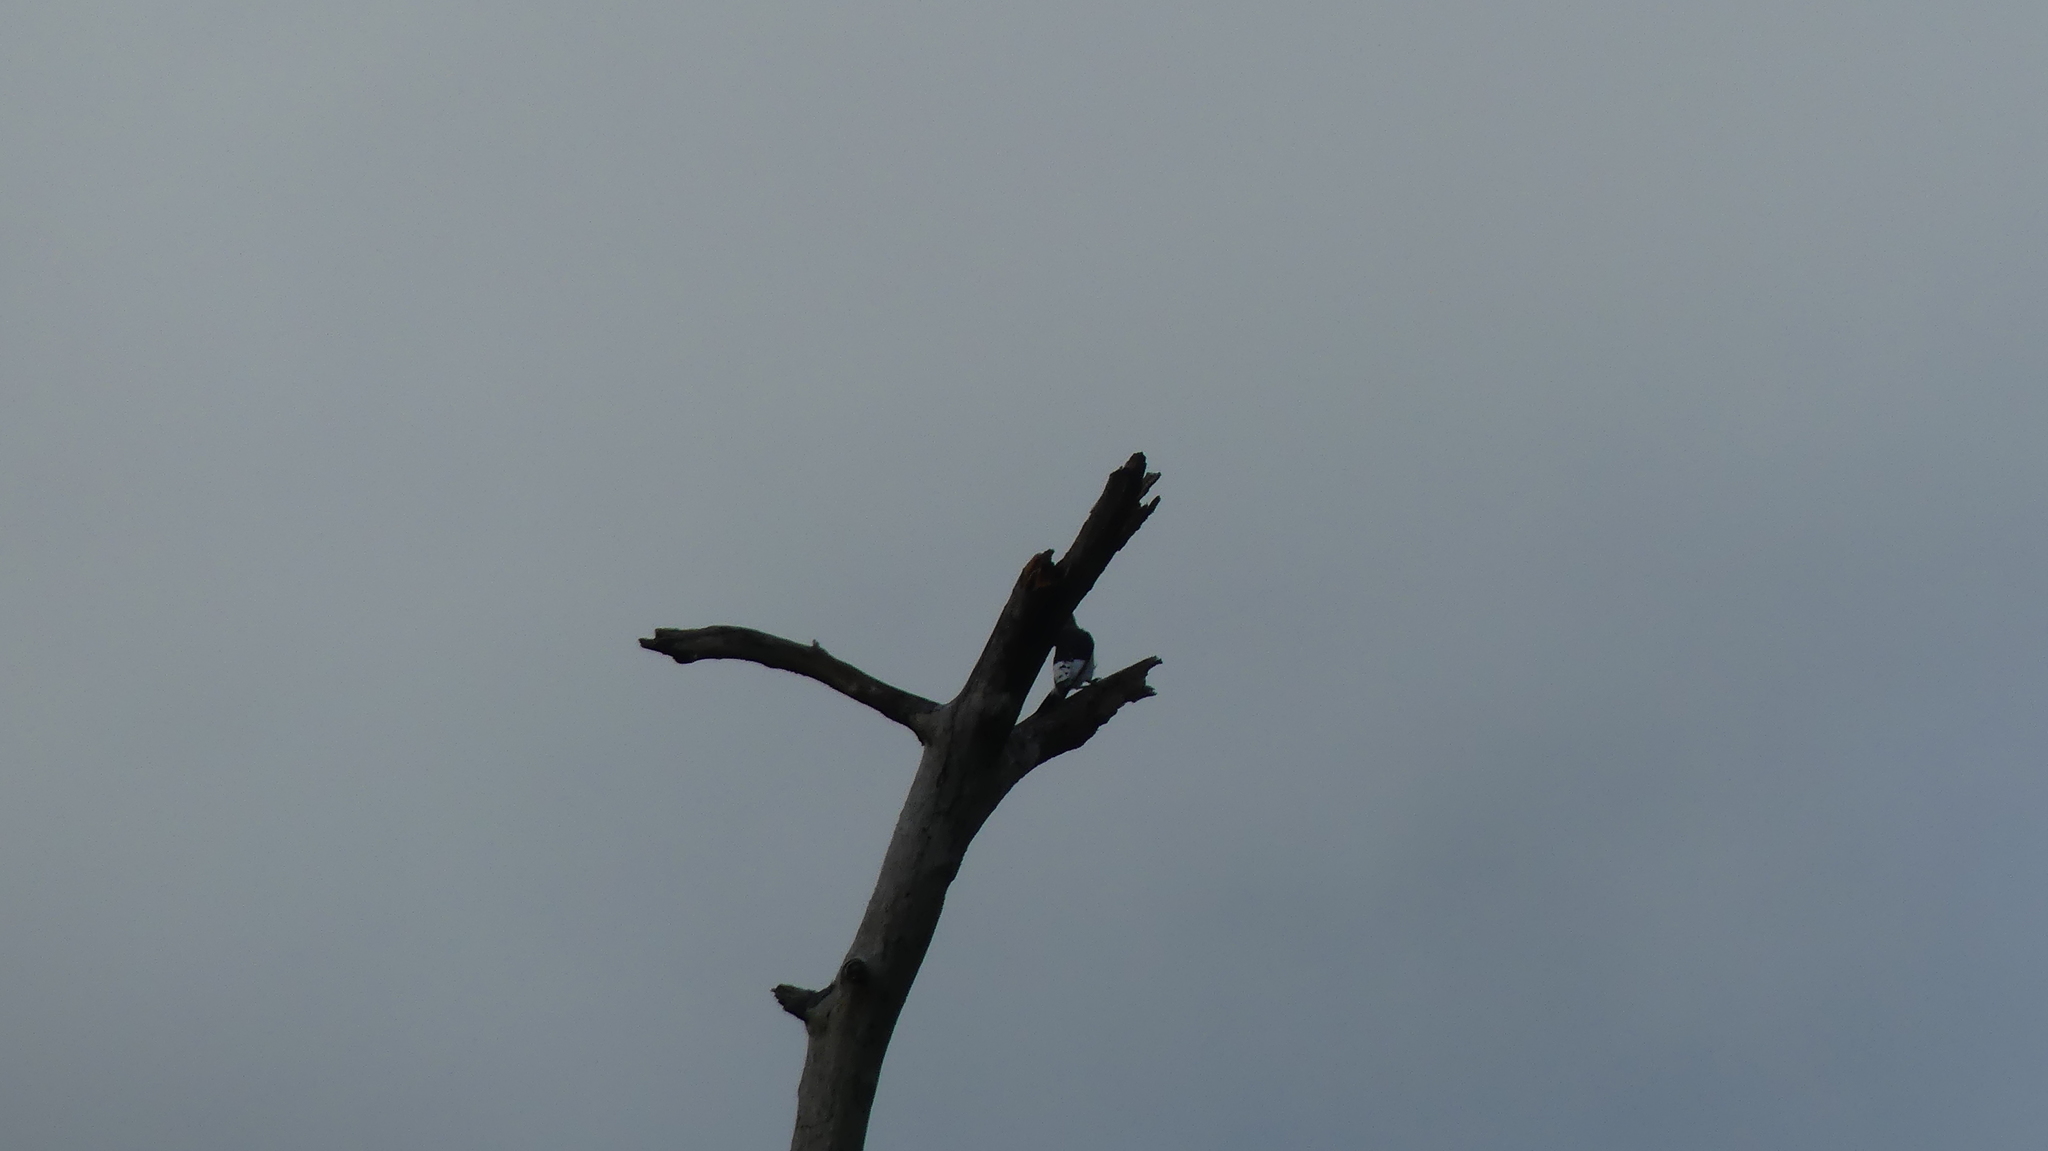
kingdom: Animalia
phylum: Chordata
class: Aves
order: Piciformes
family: Picidae
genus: Melanerpes
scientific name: Melanerpes erythrocephalus
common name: Red-headed woodpecker
